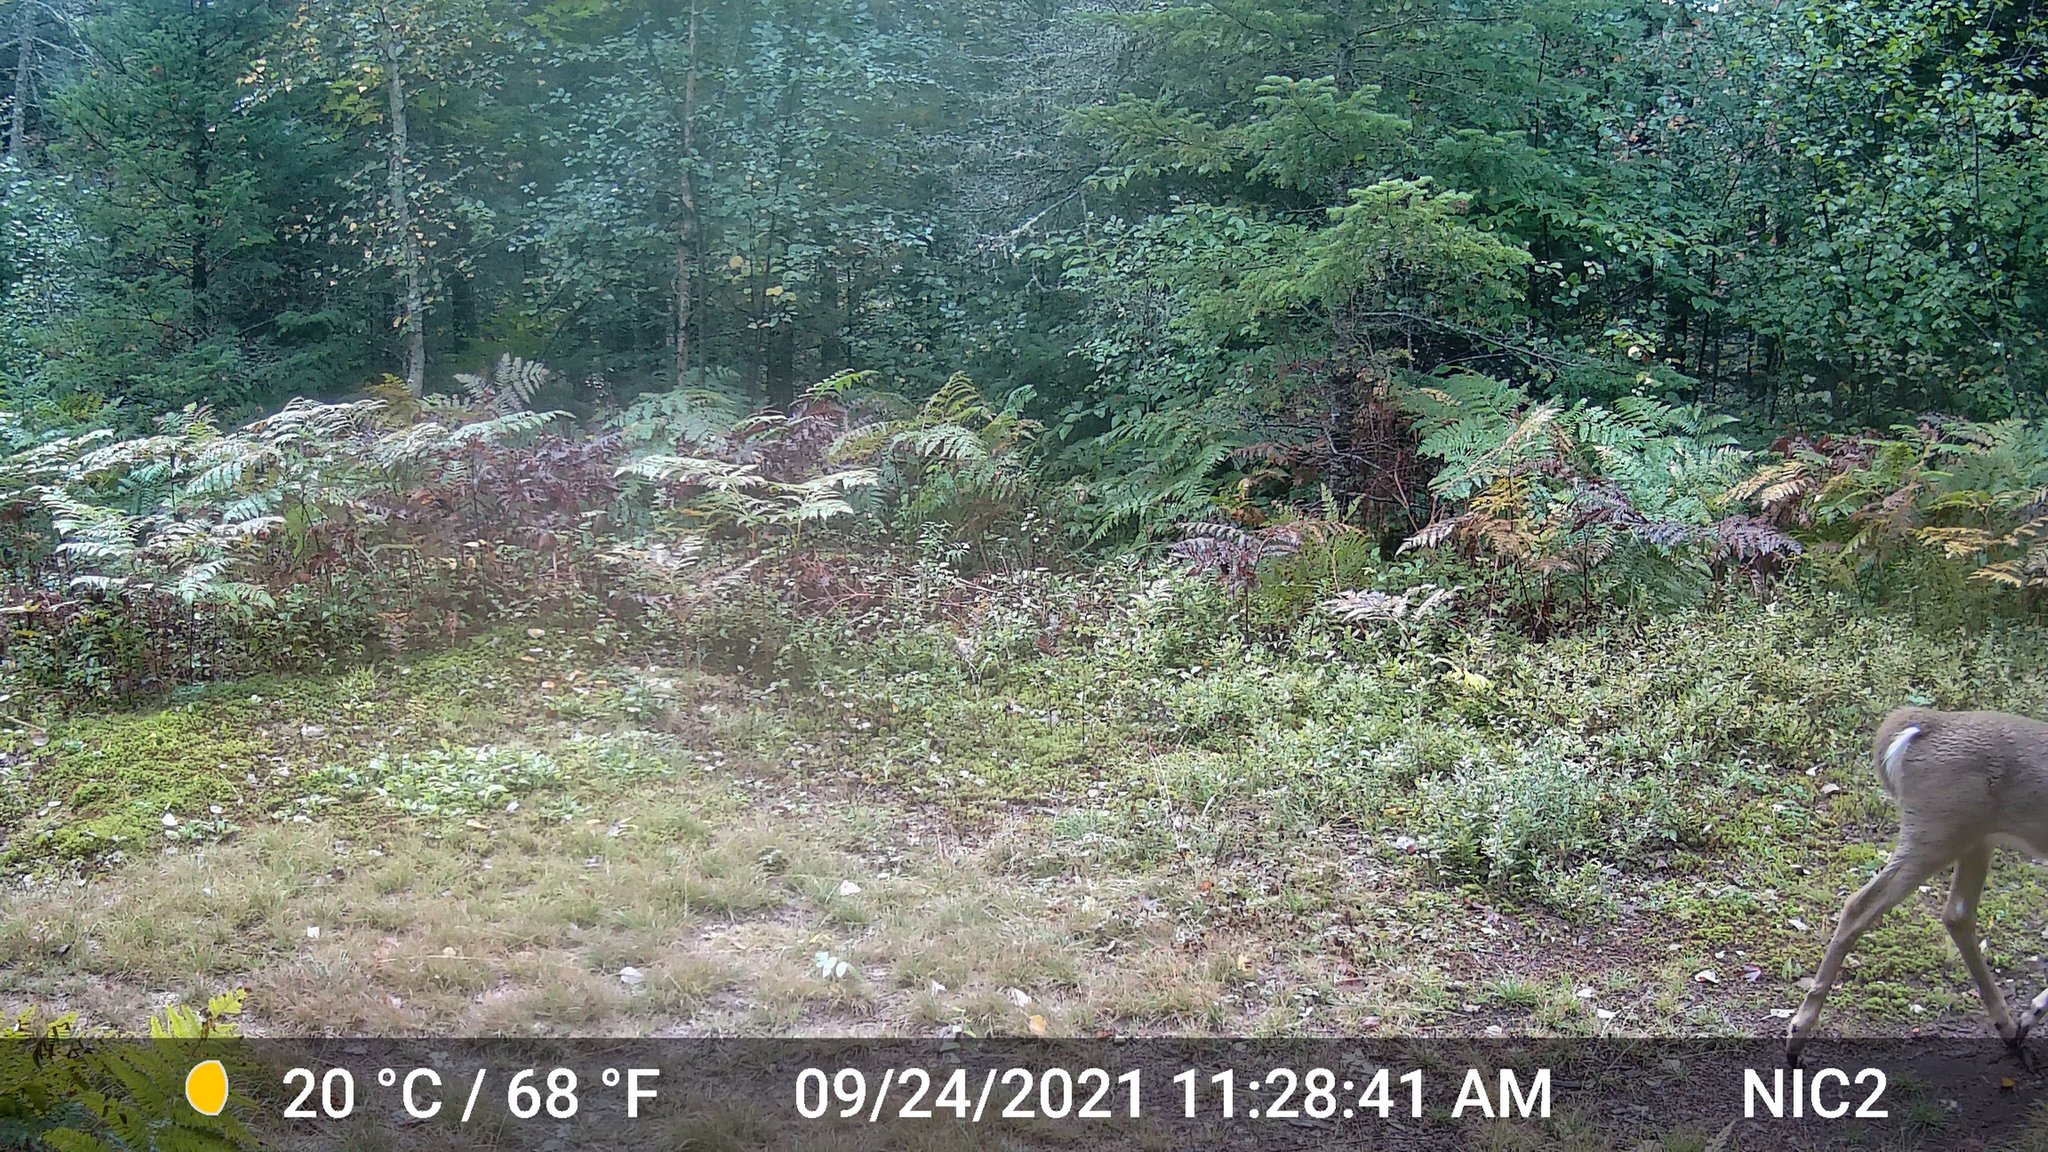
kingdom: Animalia
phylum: Chordata
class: Mammalia
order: Artiodactyla
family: Cervidae
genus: Odocoileus
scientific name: Odocoileus virginianus
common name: White-tailed deer
